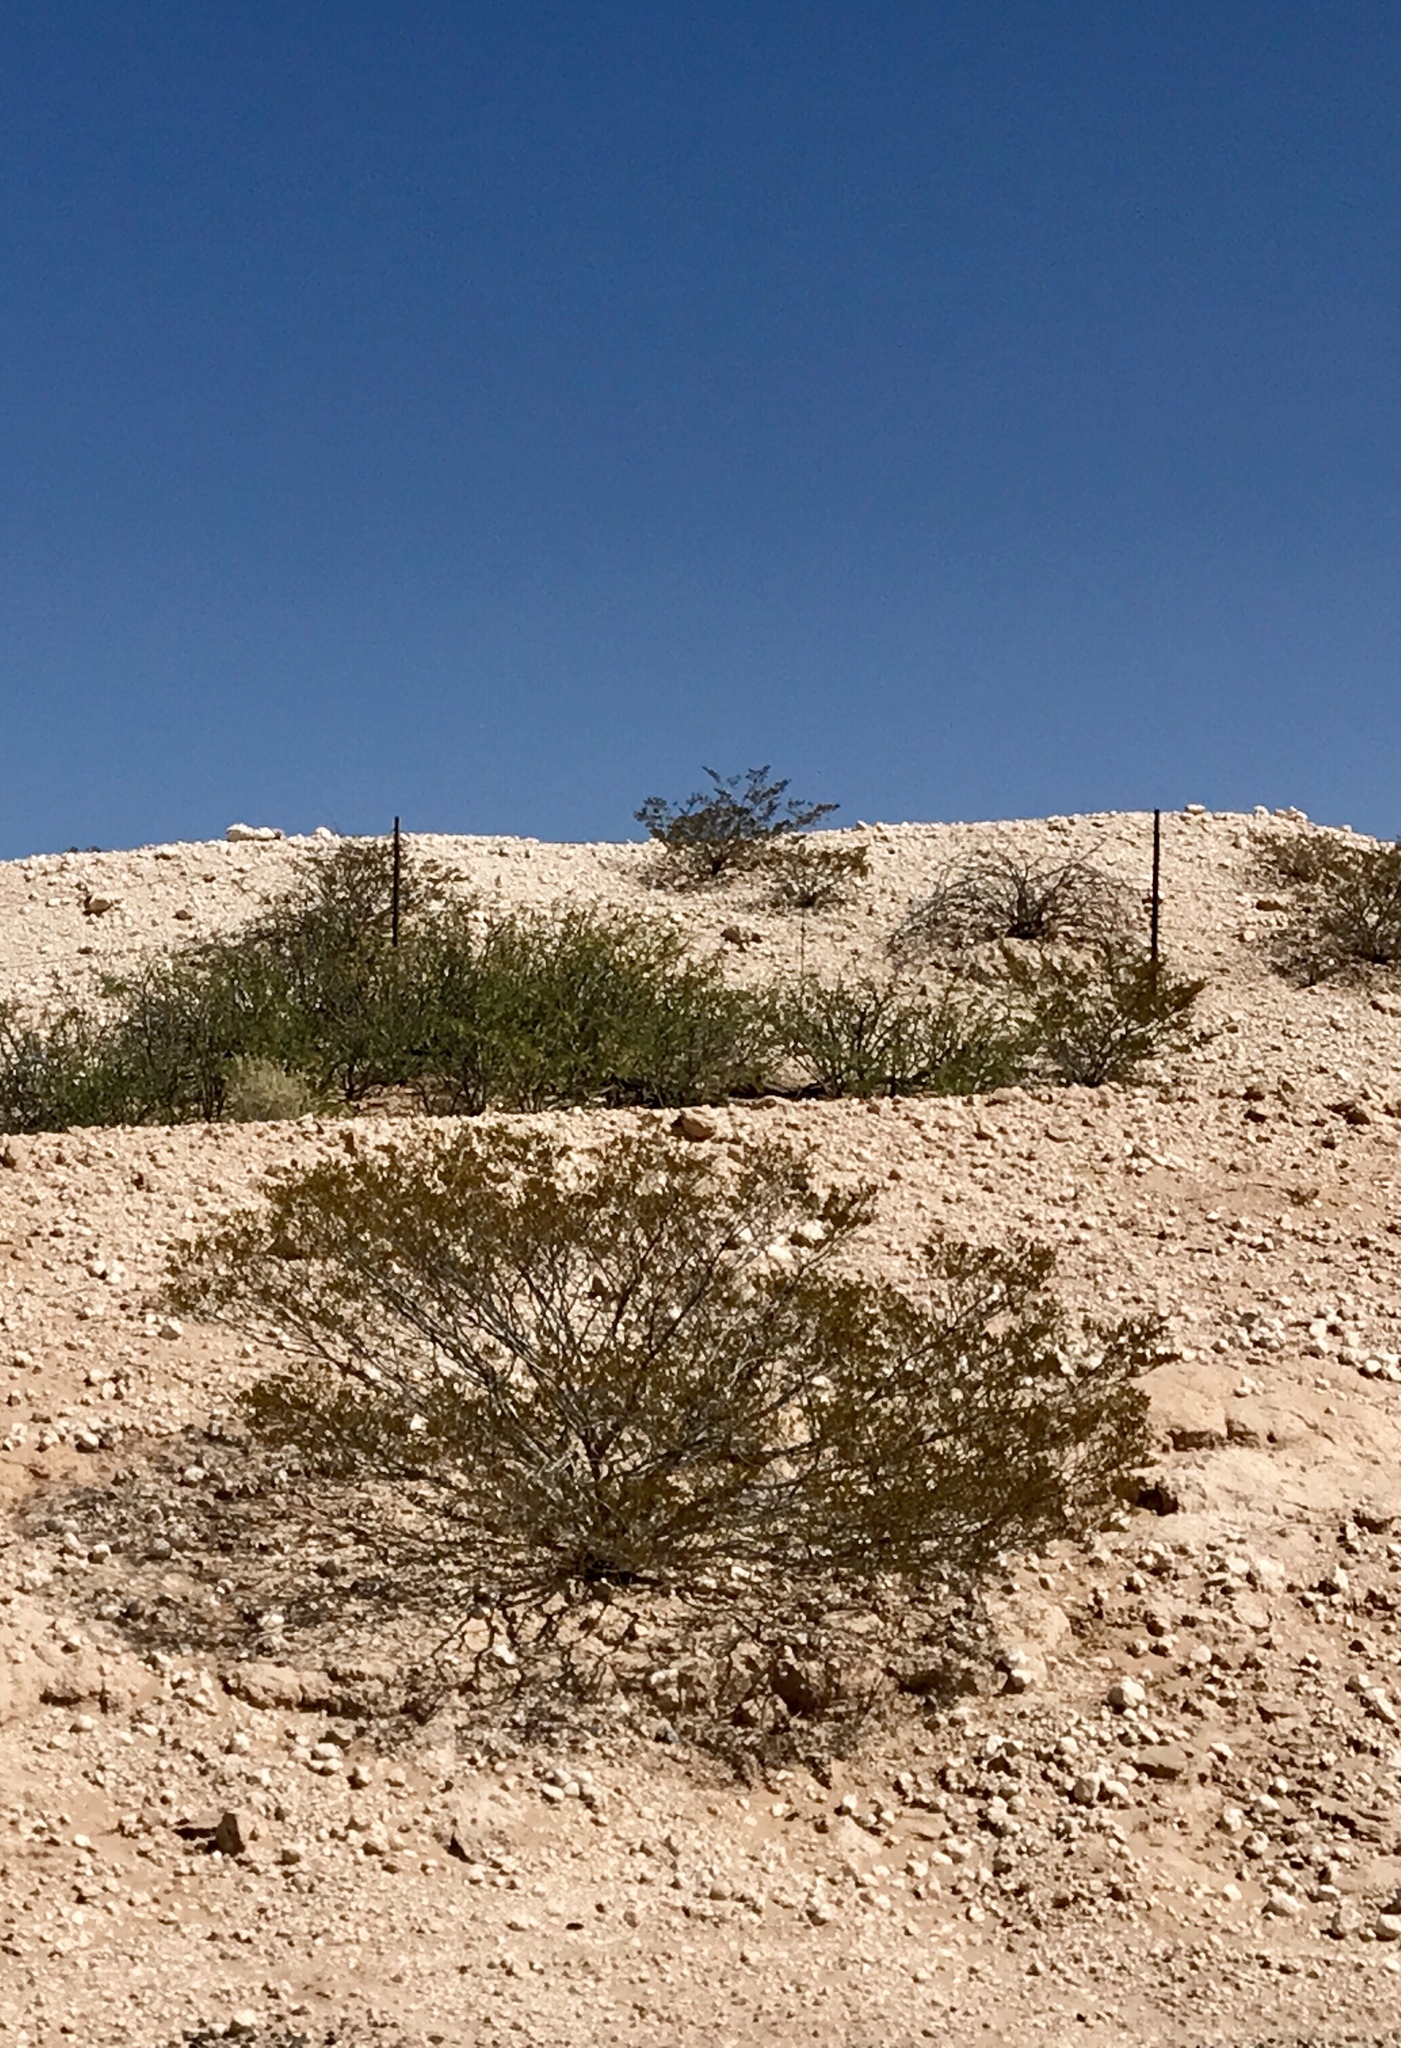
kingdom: Plantae
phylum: Tracheophyta
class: Magnoliopsida
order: Zygophyllales
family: Zygophyllaceae
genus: Larrea
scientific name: Larrea tridentata
